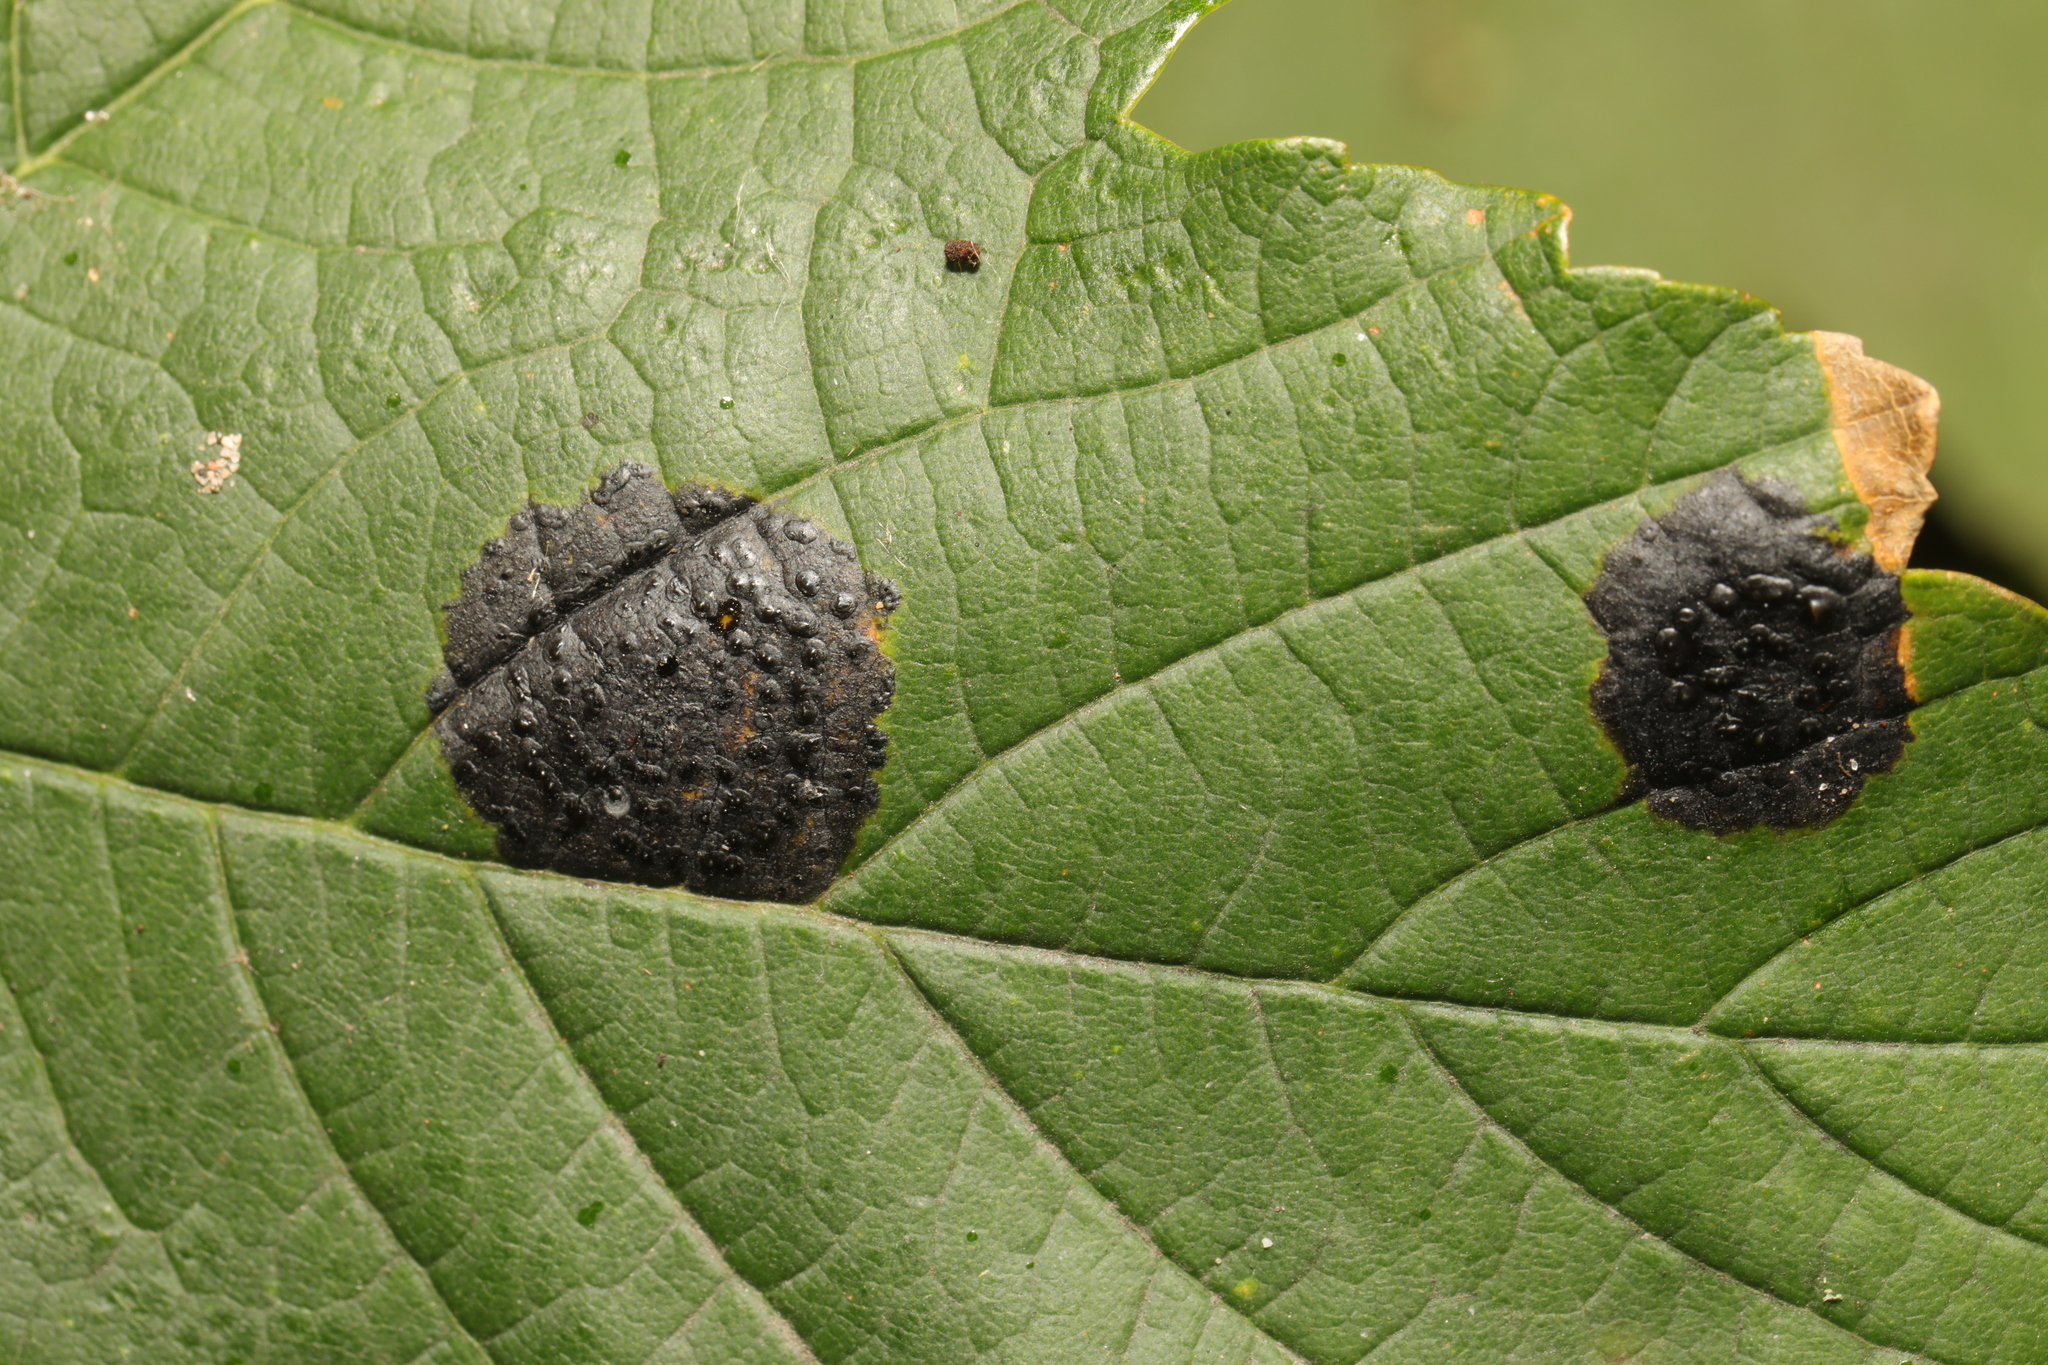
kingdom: Fungi
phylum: Ascomycota
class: Leotiomycetes
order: Rhytismatales
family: Rhytismataceae
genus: Rhytisma
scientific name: Rhytisma acerinum
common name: European tar spot
